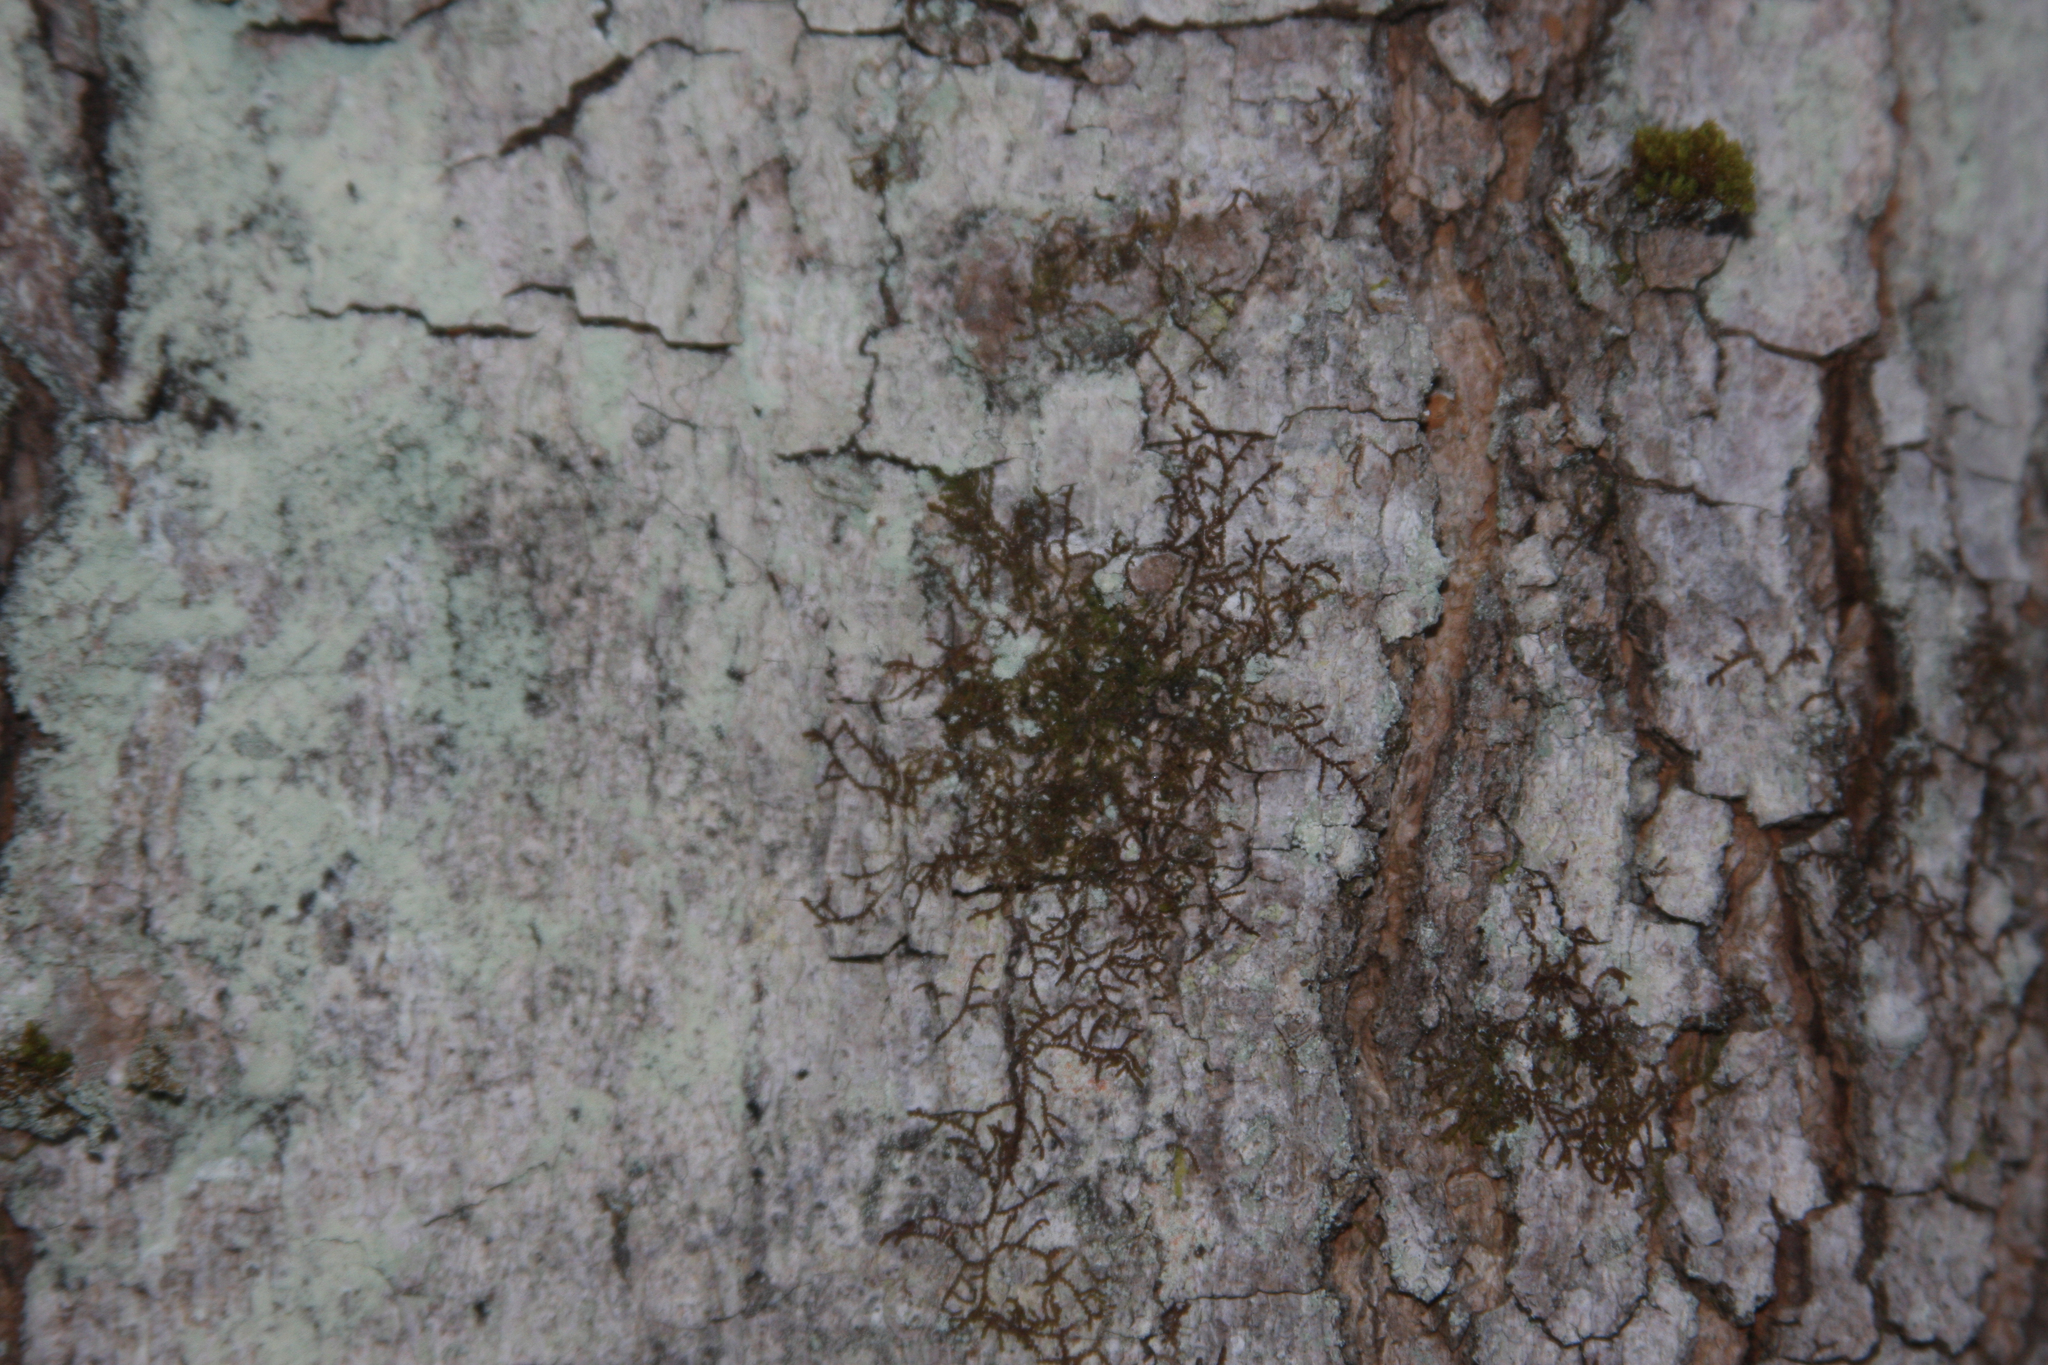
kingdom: Plantae
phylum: Marchantiophyta
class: Jungermanniopsida
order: Porellales
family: Frullaniaceae
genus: Frullania
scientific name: Frullania eboracensis
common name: New york scalewort
